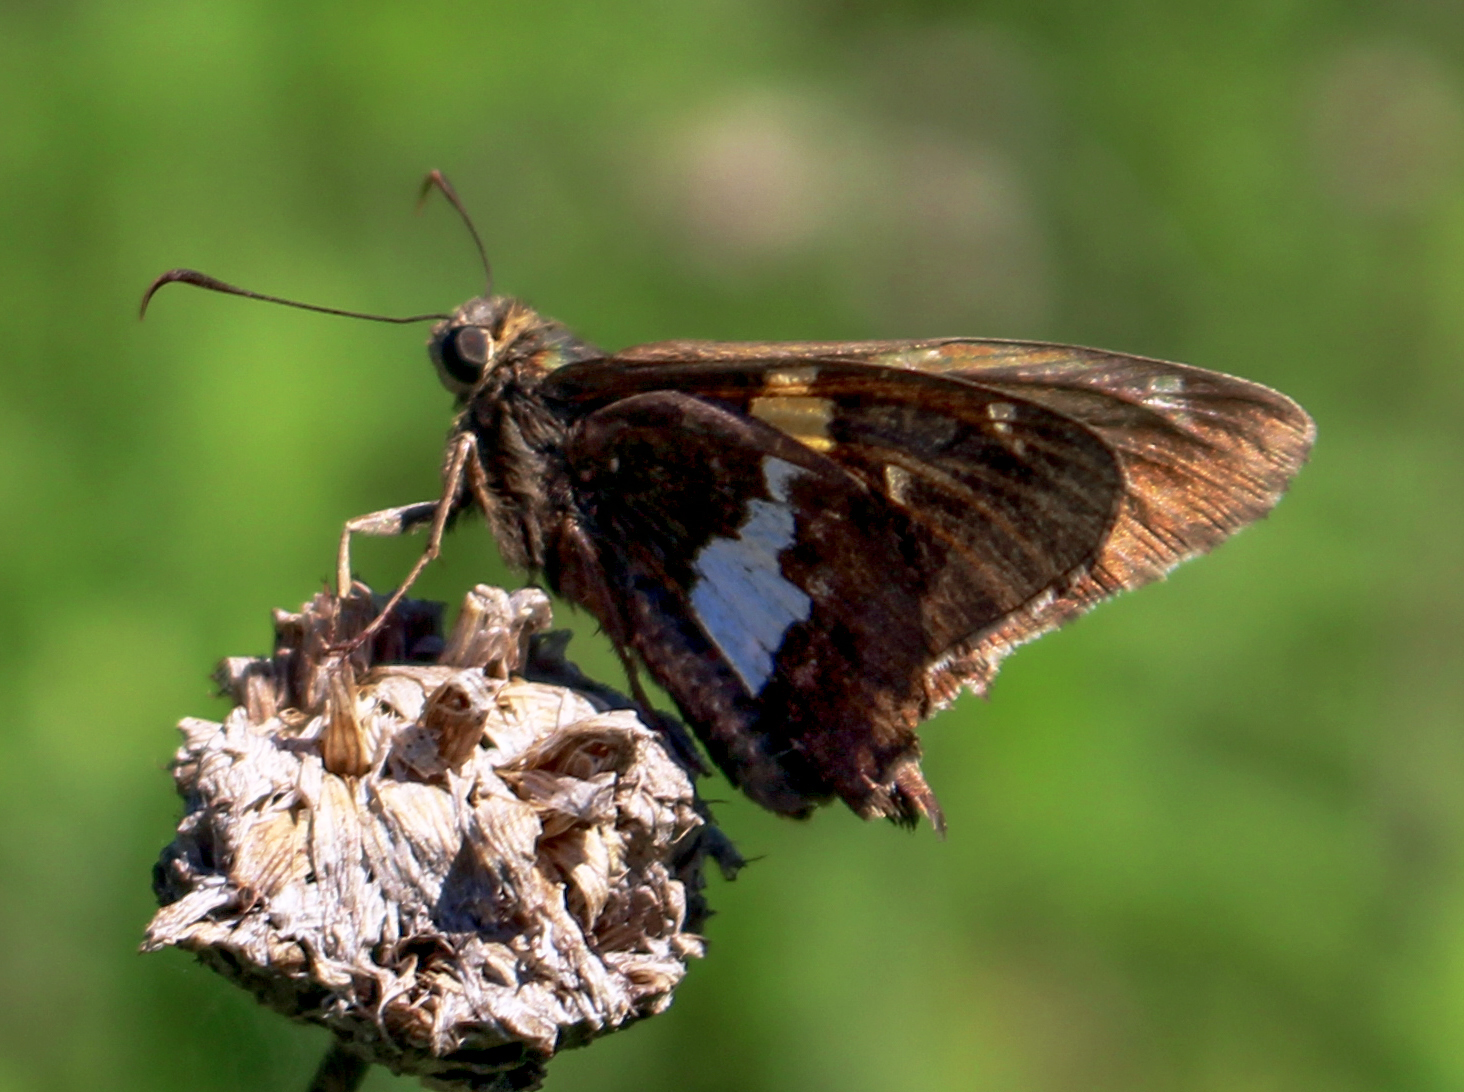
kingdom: Animalia
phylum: Arthropoda
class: Insecta
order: Lepidoptera
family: Hesperiidae
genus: Epargyreus
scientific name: Epargyreus clarus
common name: Silver-spotted skipper
